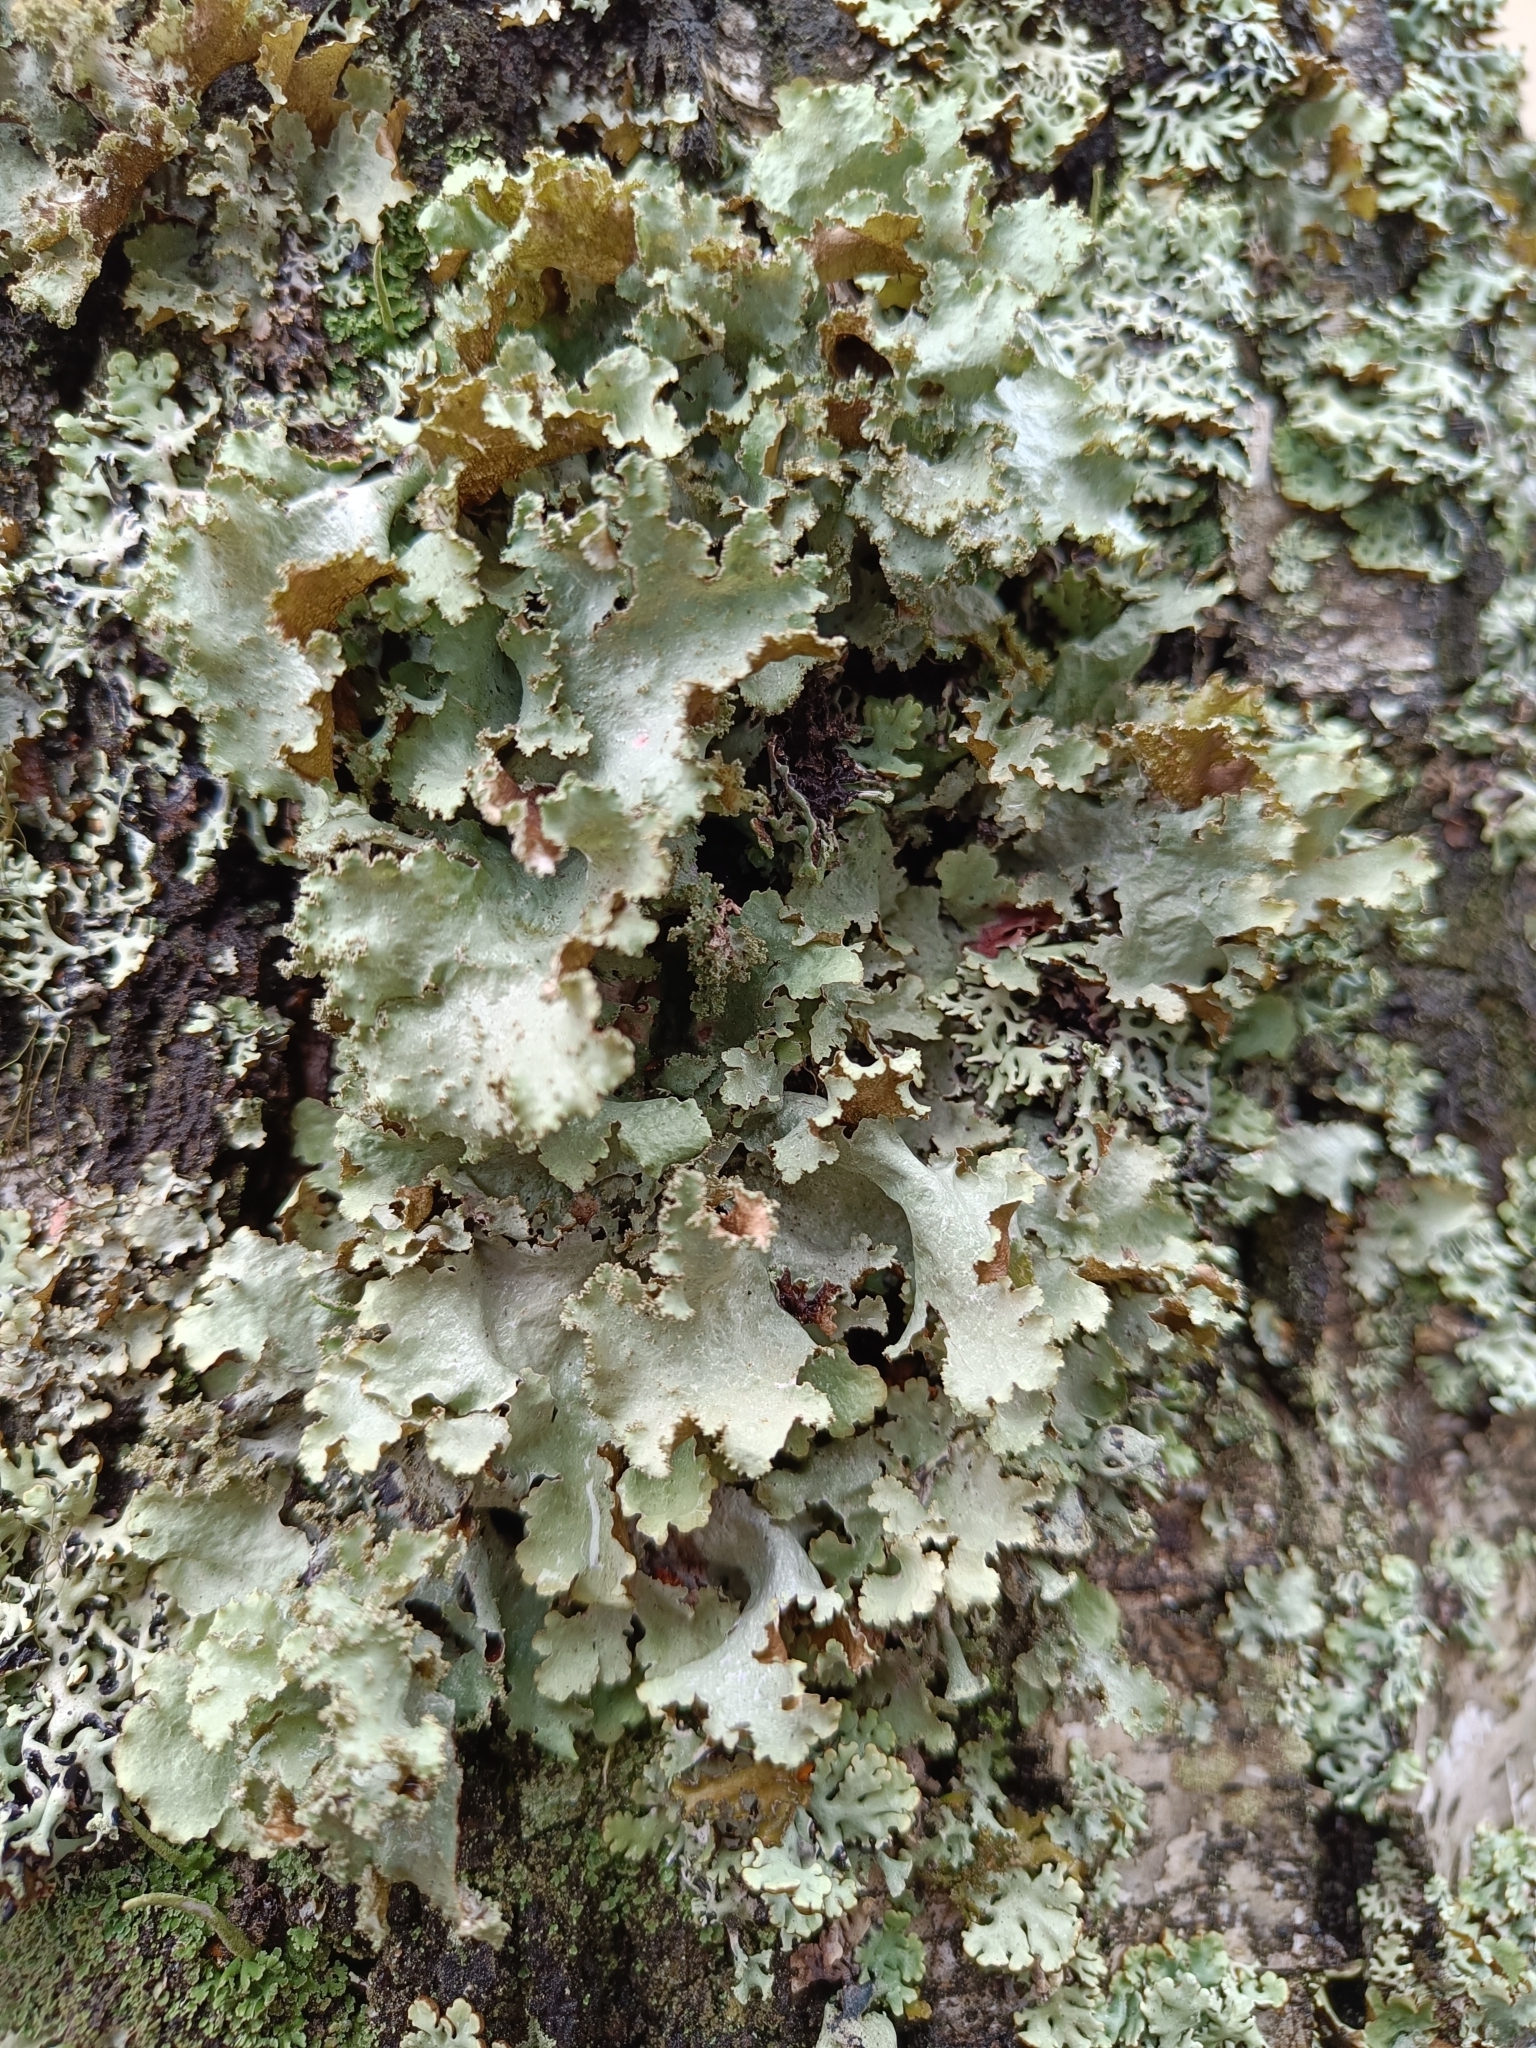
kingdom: Fungi
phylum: Ascomycota
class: Lecanoromycetes
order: Lecanorales
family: Parmeliaceae
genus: Platismatia
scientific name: Platismatia glauca
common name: Varied rag lichen
